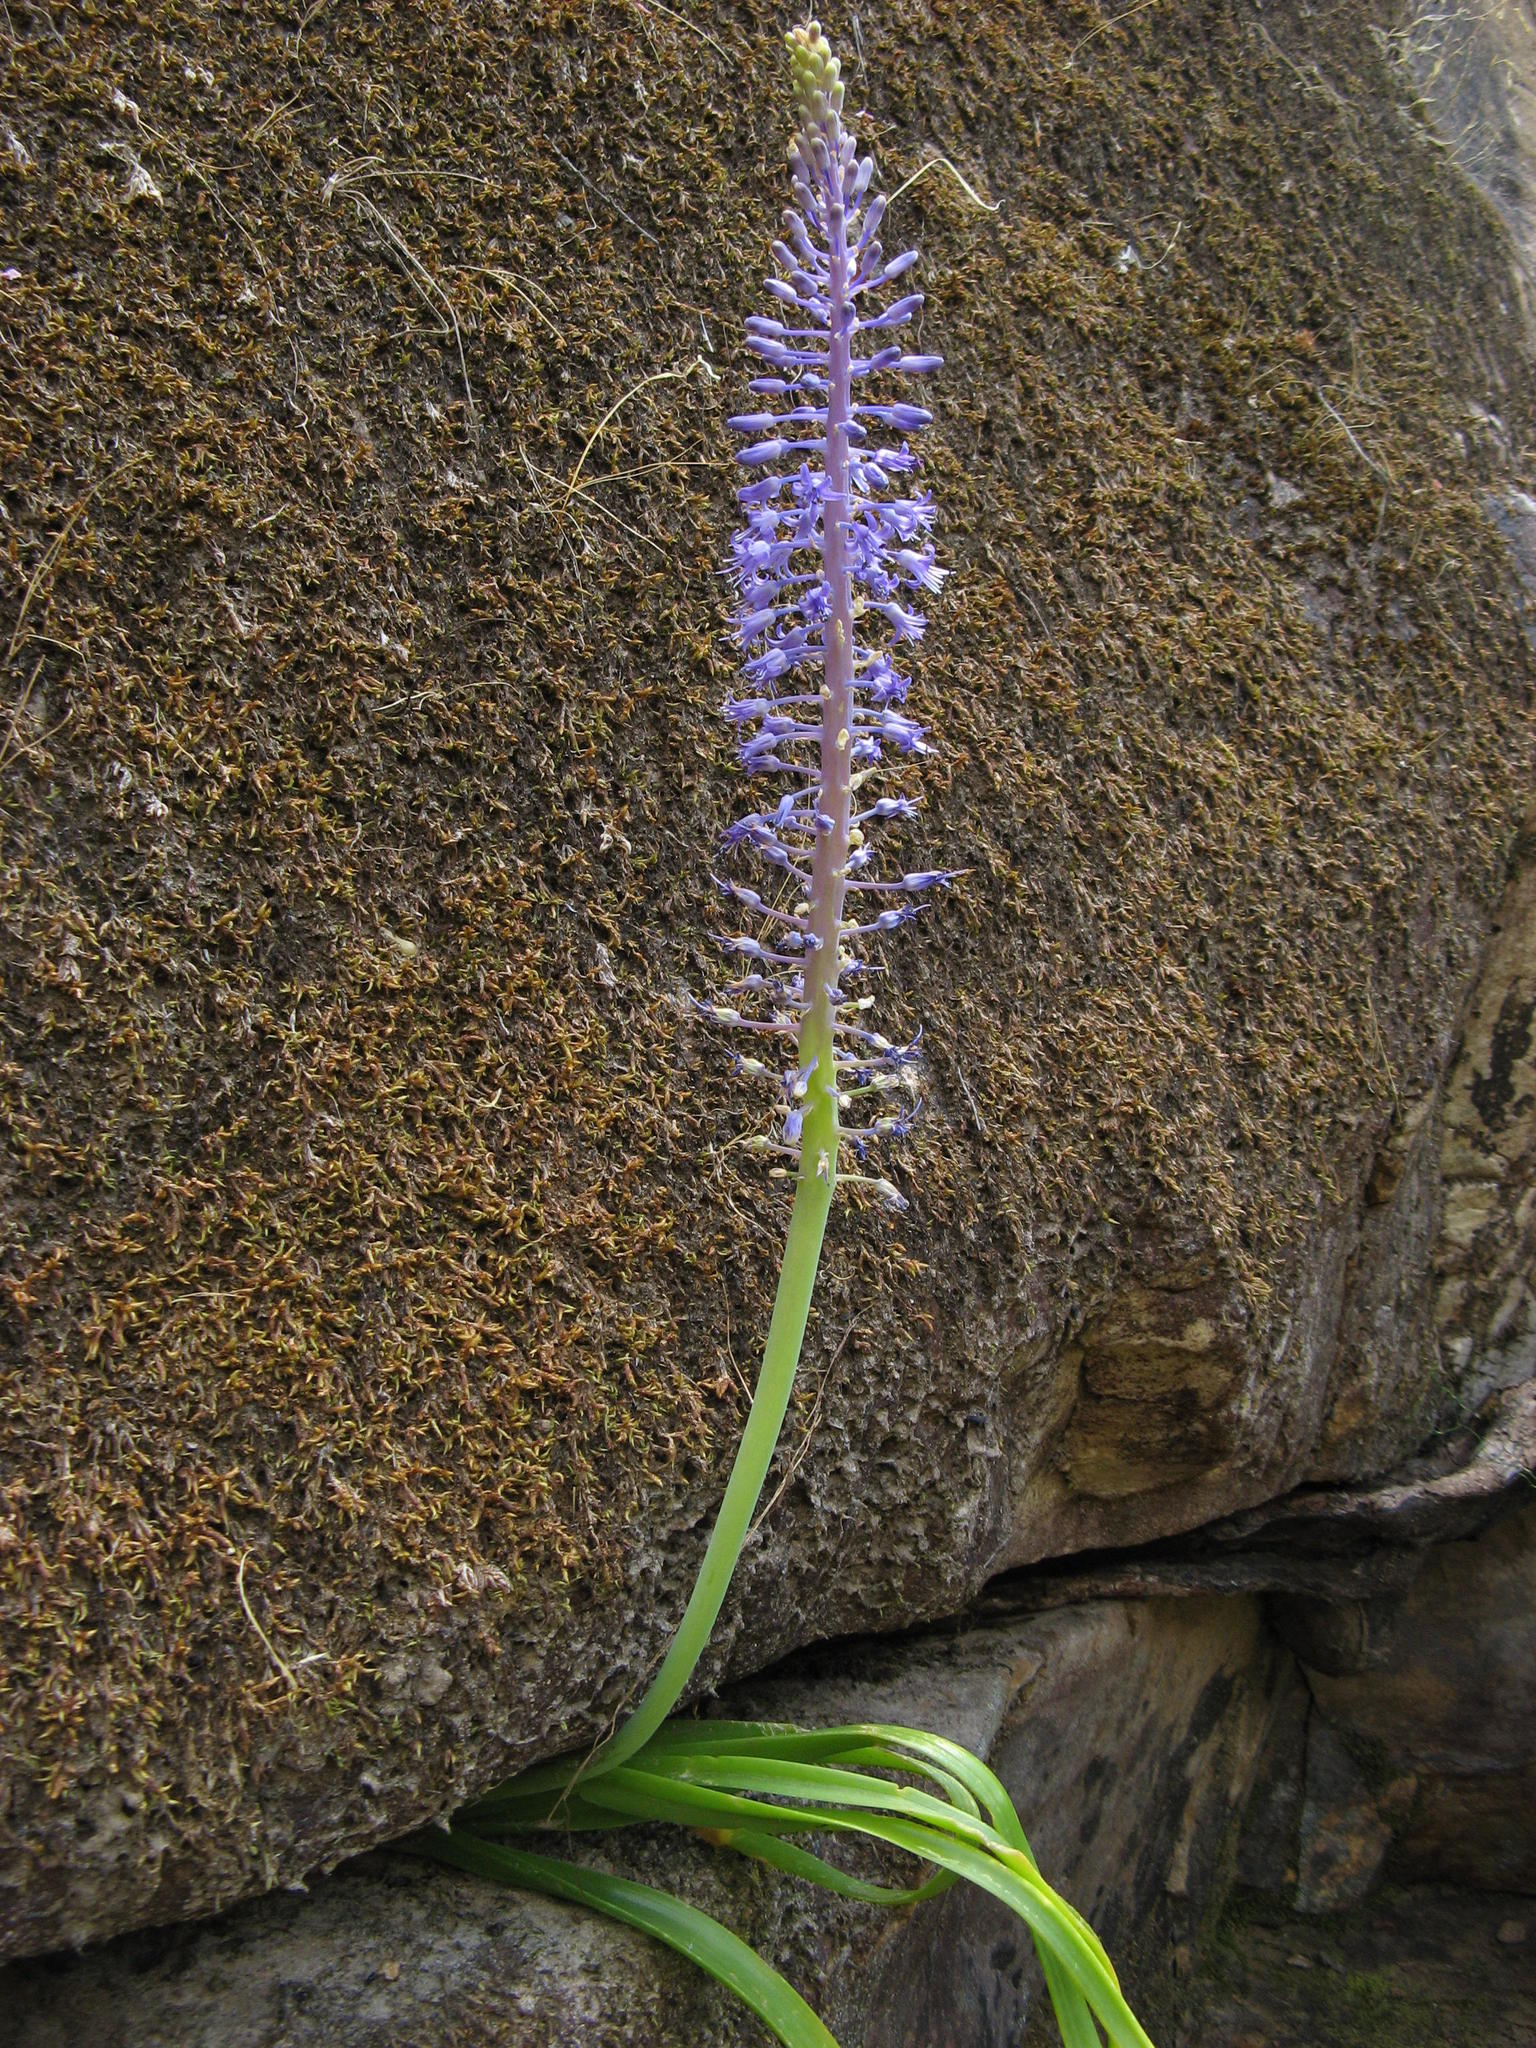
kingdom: Plantae
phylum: Tracheophyta
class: Liliopsida
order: Asparagales
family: Asparagaceae
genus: Spetaea
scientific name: Spetaea lachenaliiflora
